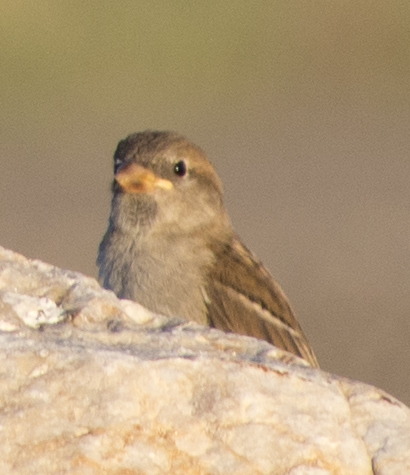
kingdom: Animalia
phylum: Chordata
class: Aves
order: Passeriformes
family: Passeridae
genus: Passer
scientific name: Passer domesticus
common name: House sparrow
